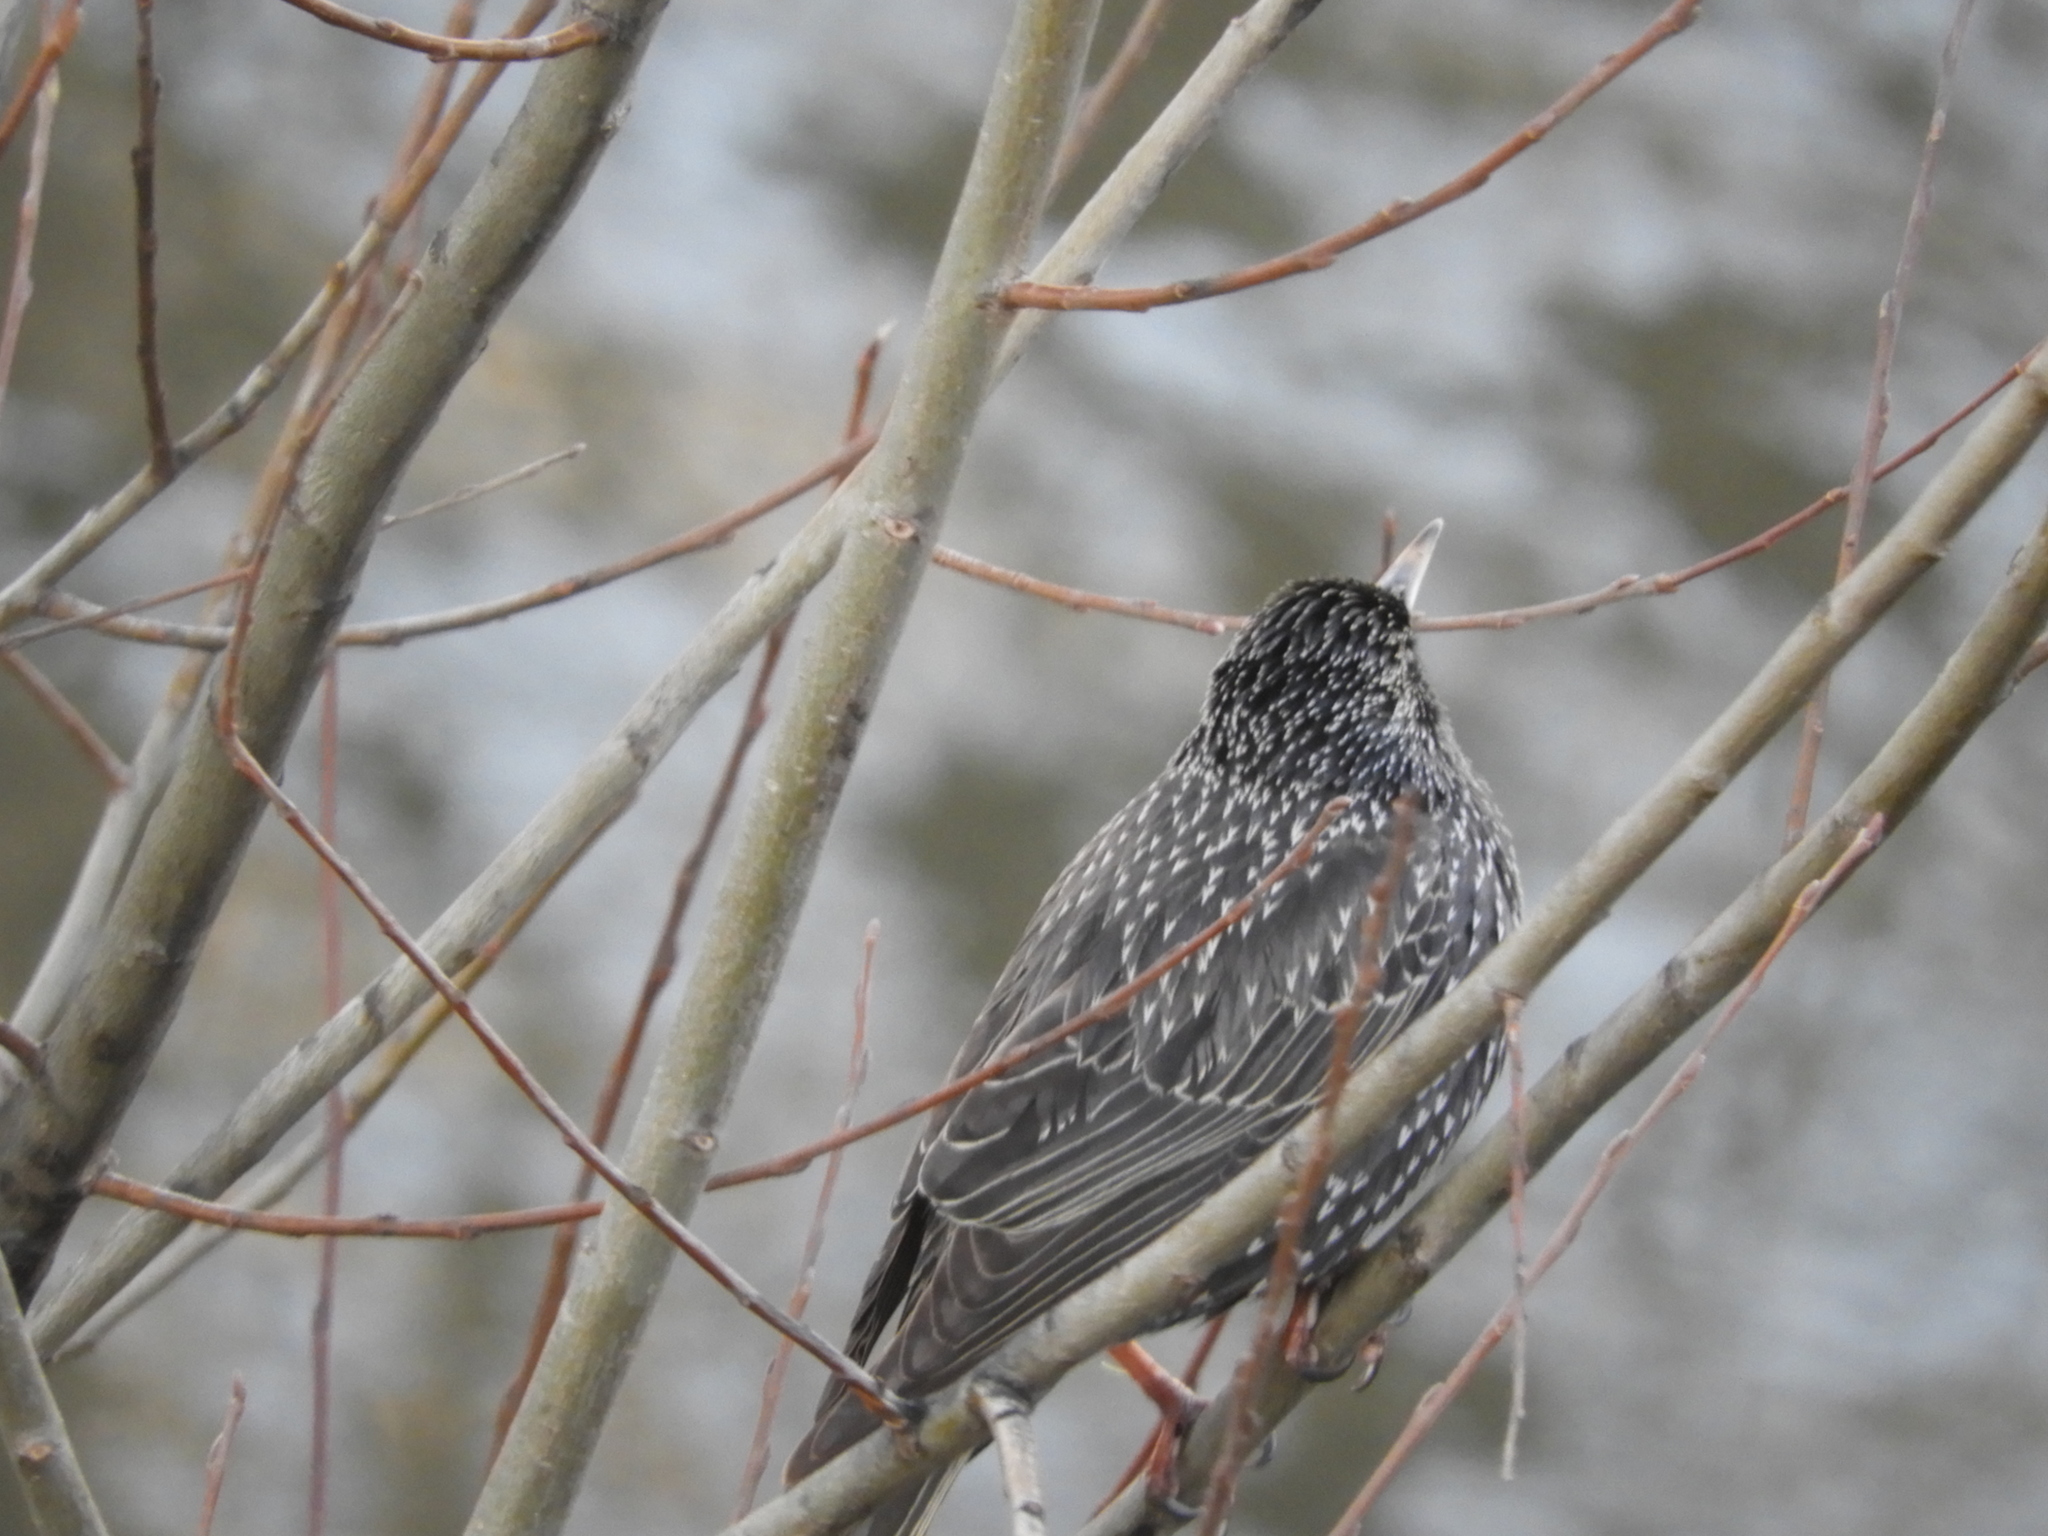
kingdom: Animalia
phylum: Chordata
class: Aves
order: Passeriformes
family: Sturnidae
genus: Sturnus
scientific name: Sturnus unicolor
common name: Spotless starling
